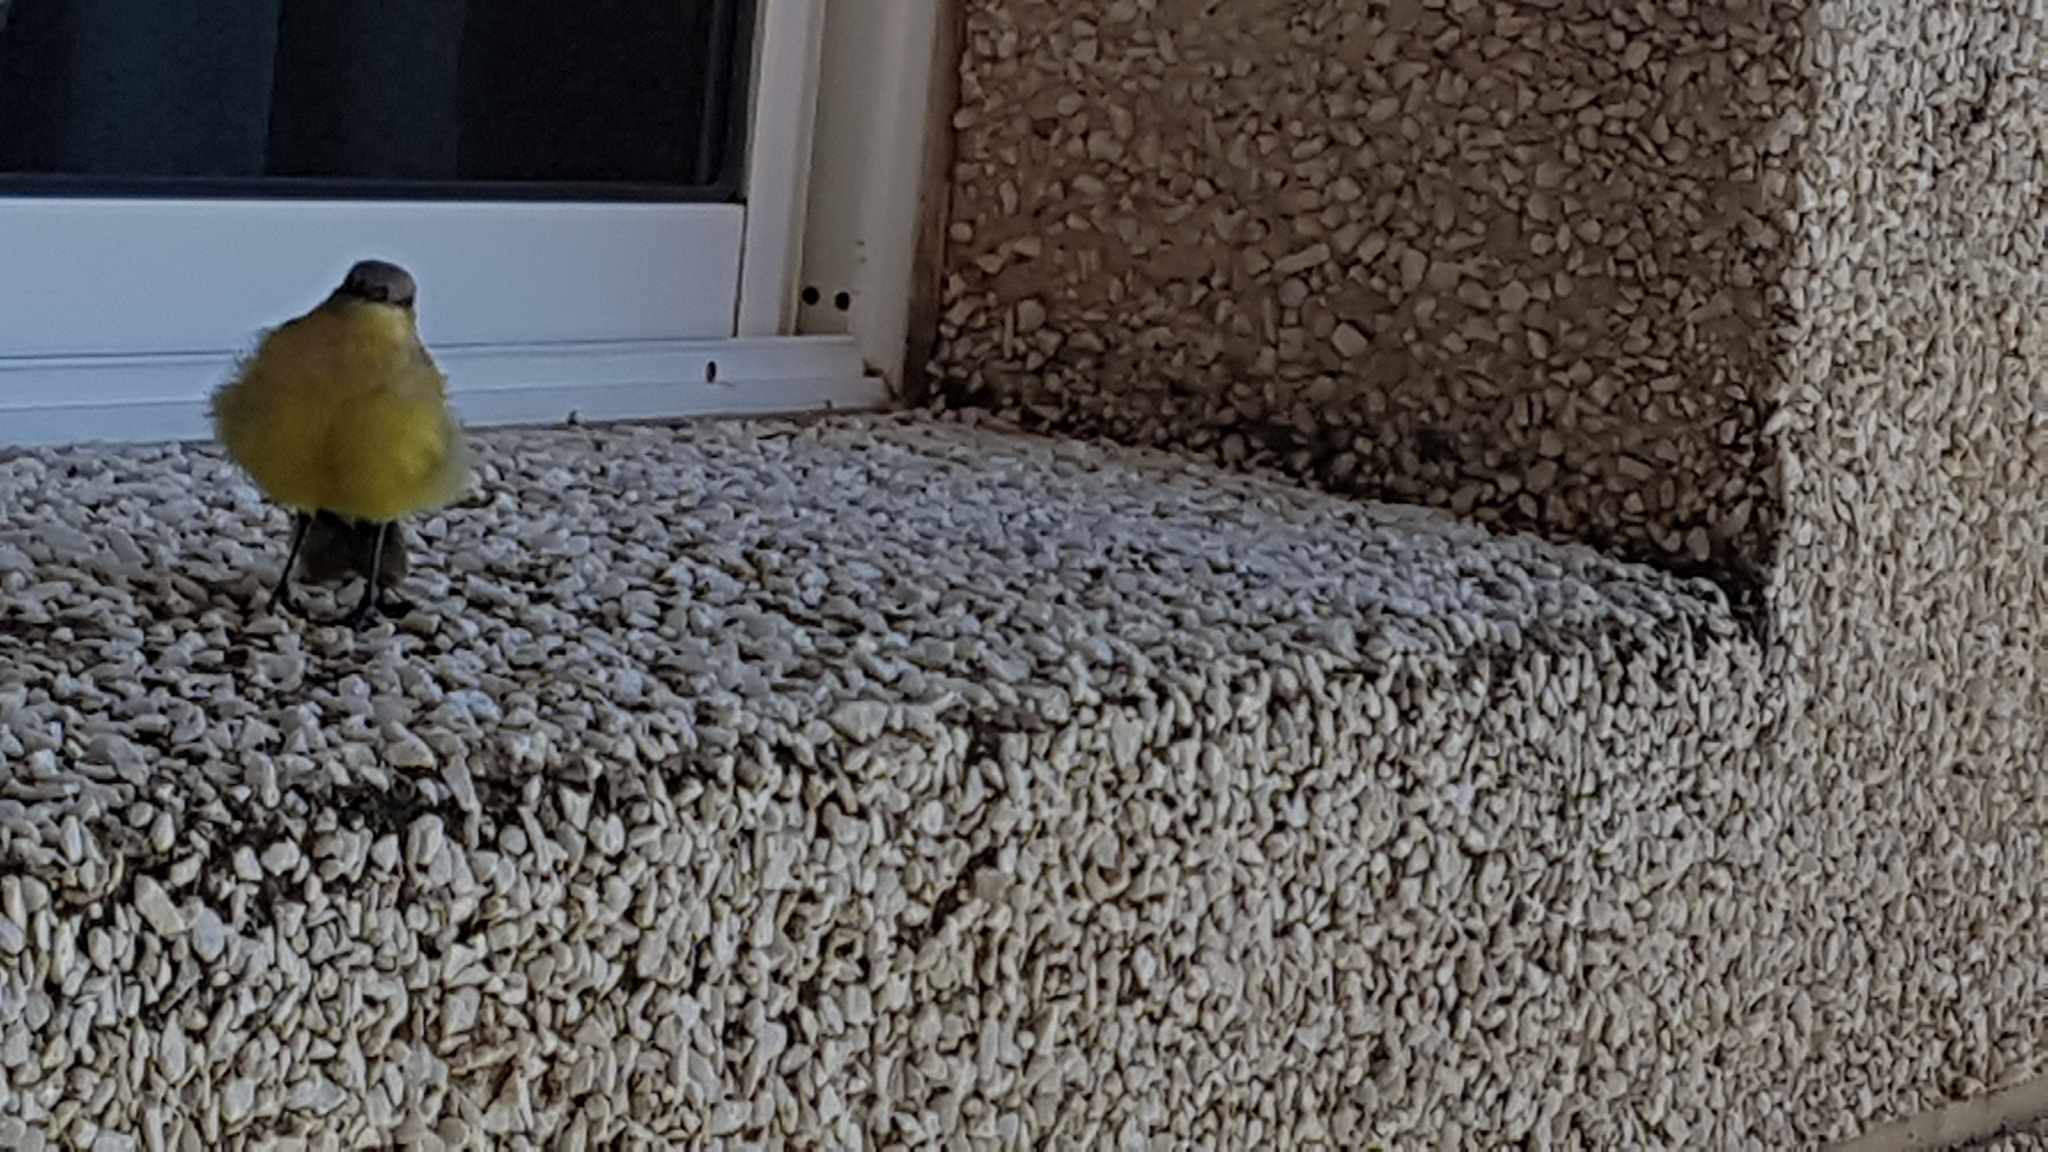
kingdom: Animalia
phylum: Chordata
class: Aves
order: Passeriformes
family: Tyrannidae
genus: Machetornis
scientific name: Machetornis rixosa
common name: Cattle tyrant
